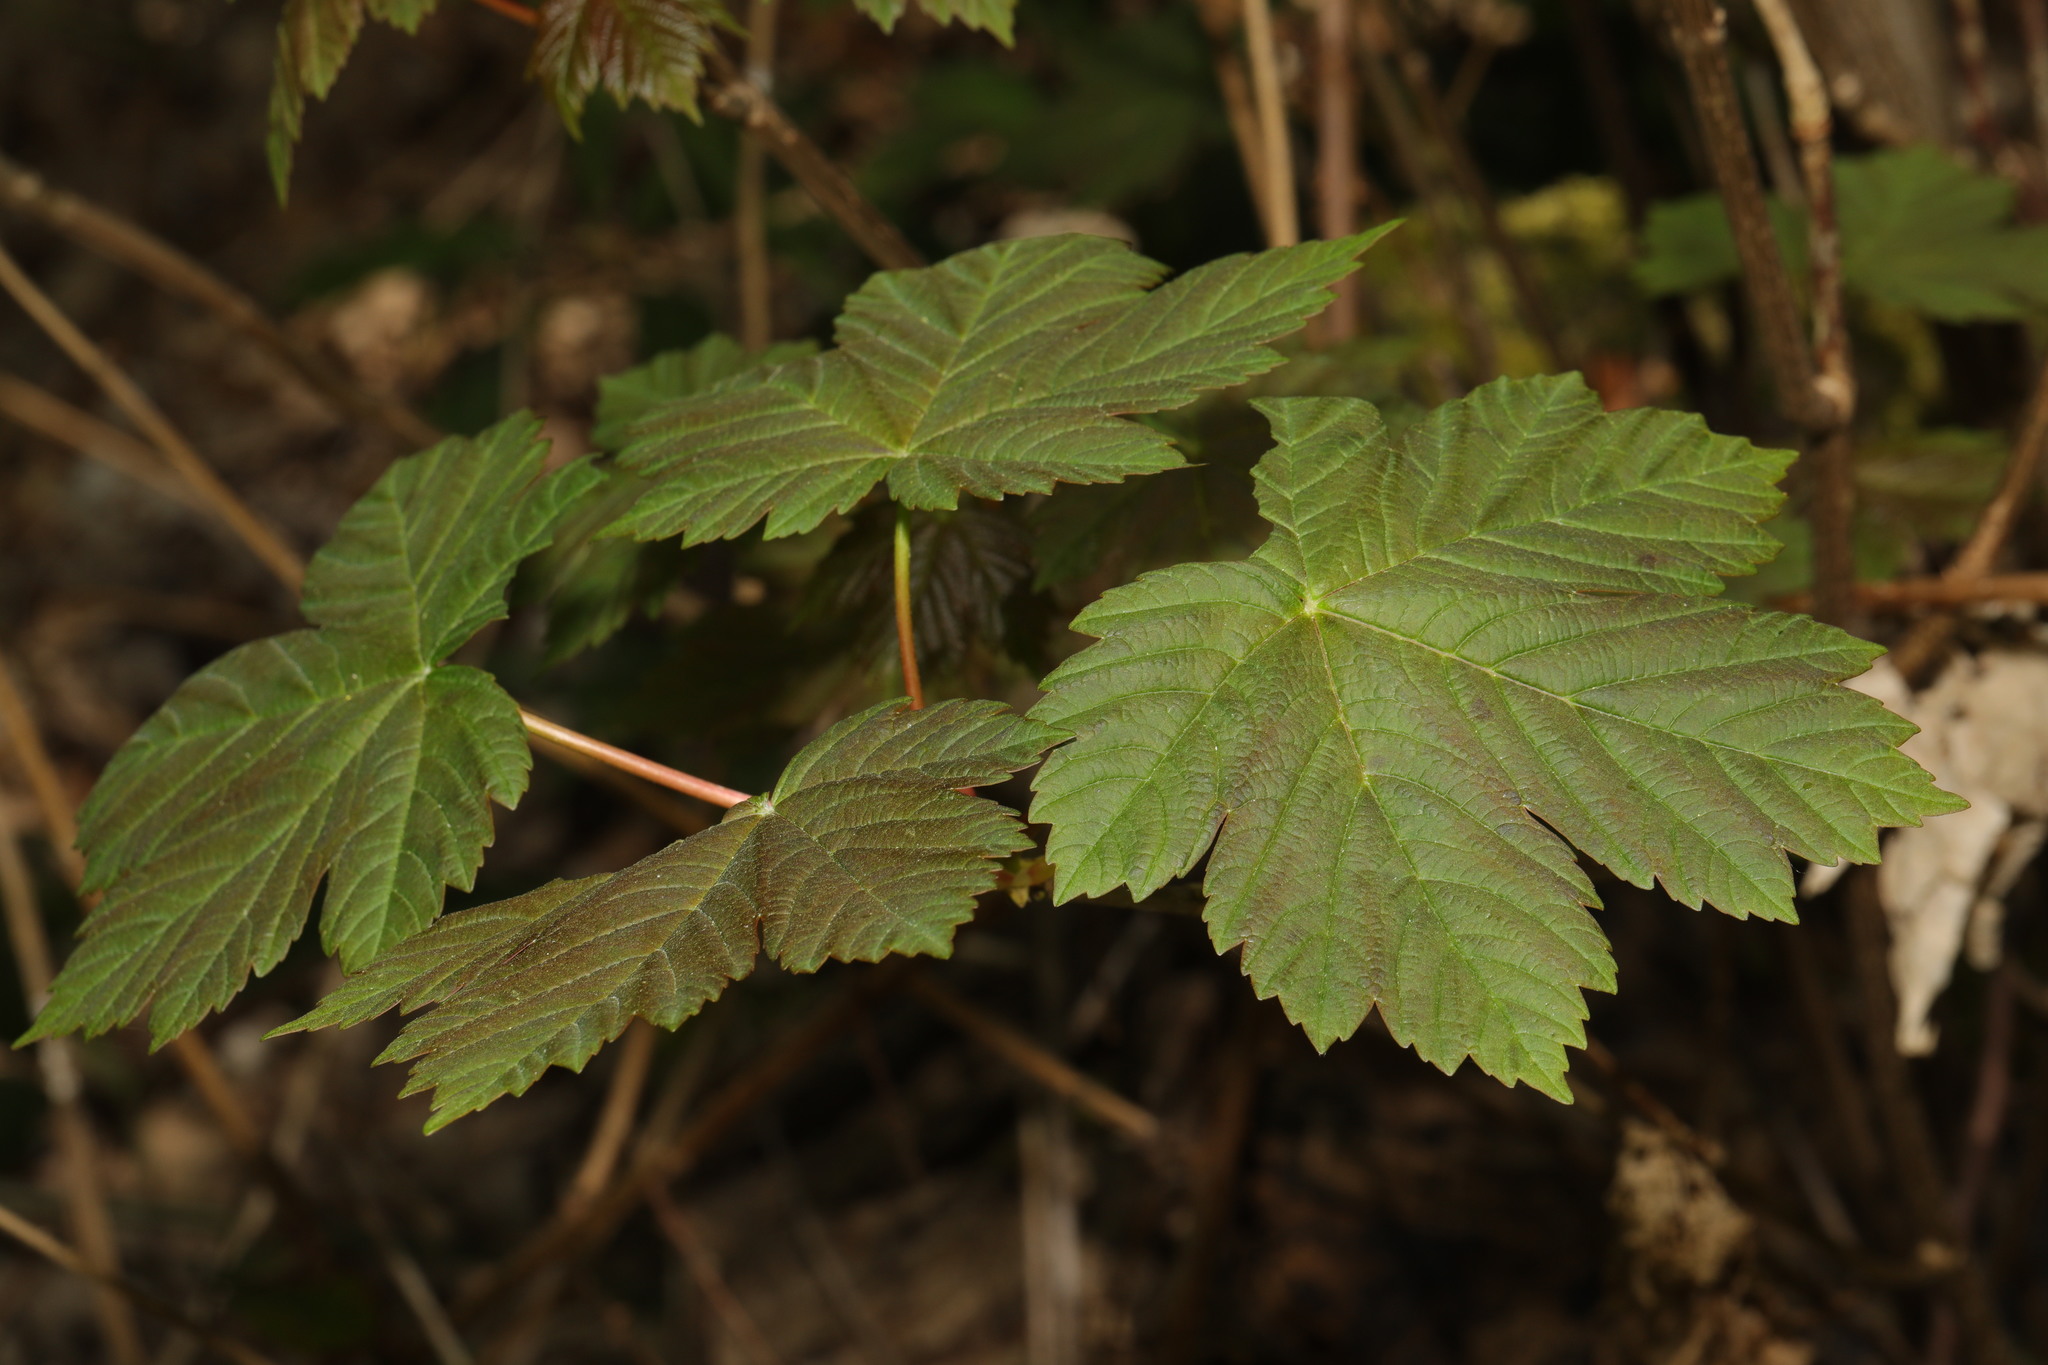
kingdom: Plantae
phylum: Tracheophyta
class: Magnoliopsida
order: Sapindales
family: Sapindaceae
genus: Acer
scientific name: Acer pseudoplatanus
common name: Sycamore
